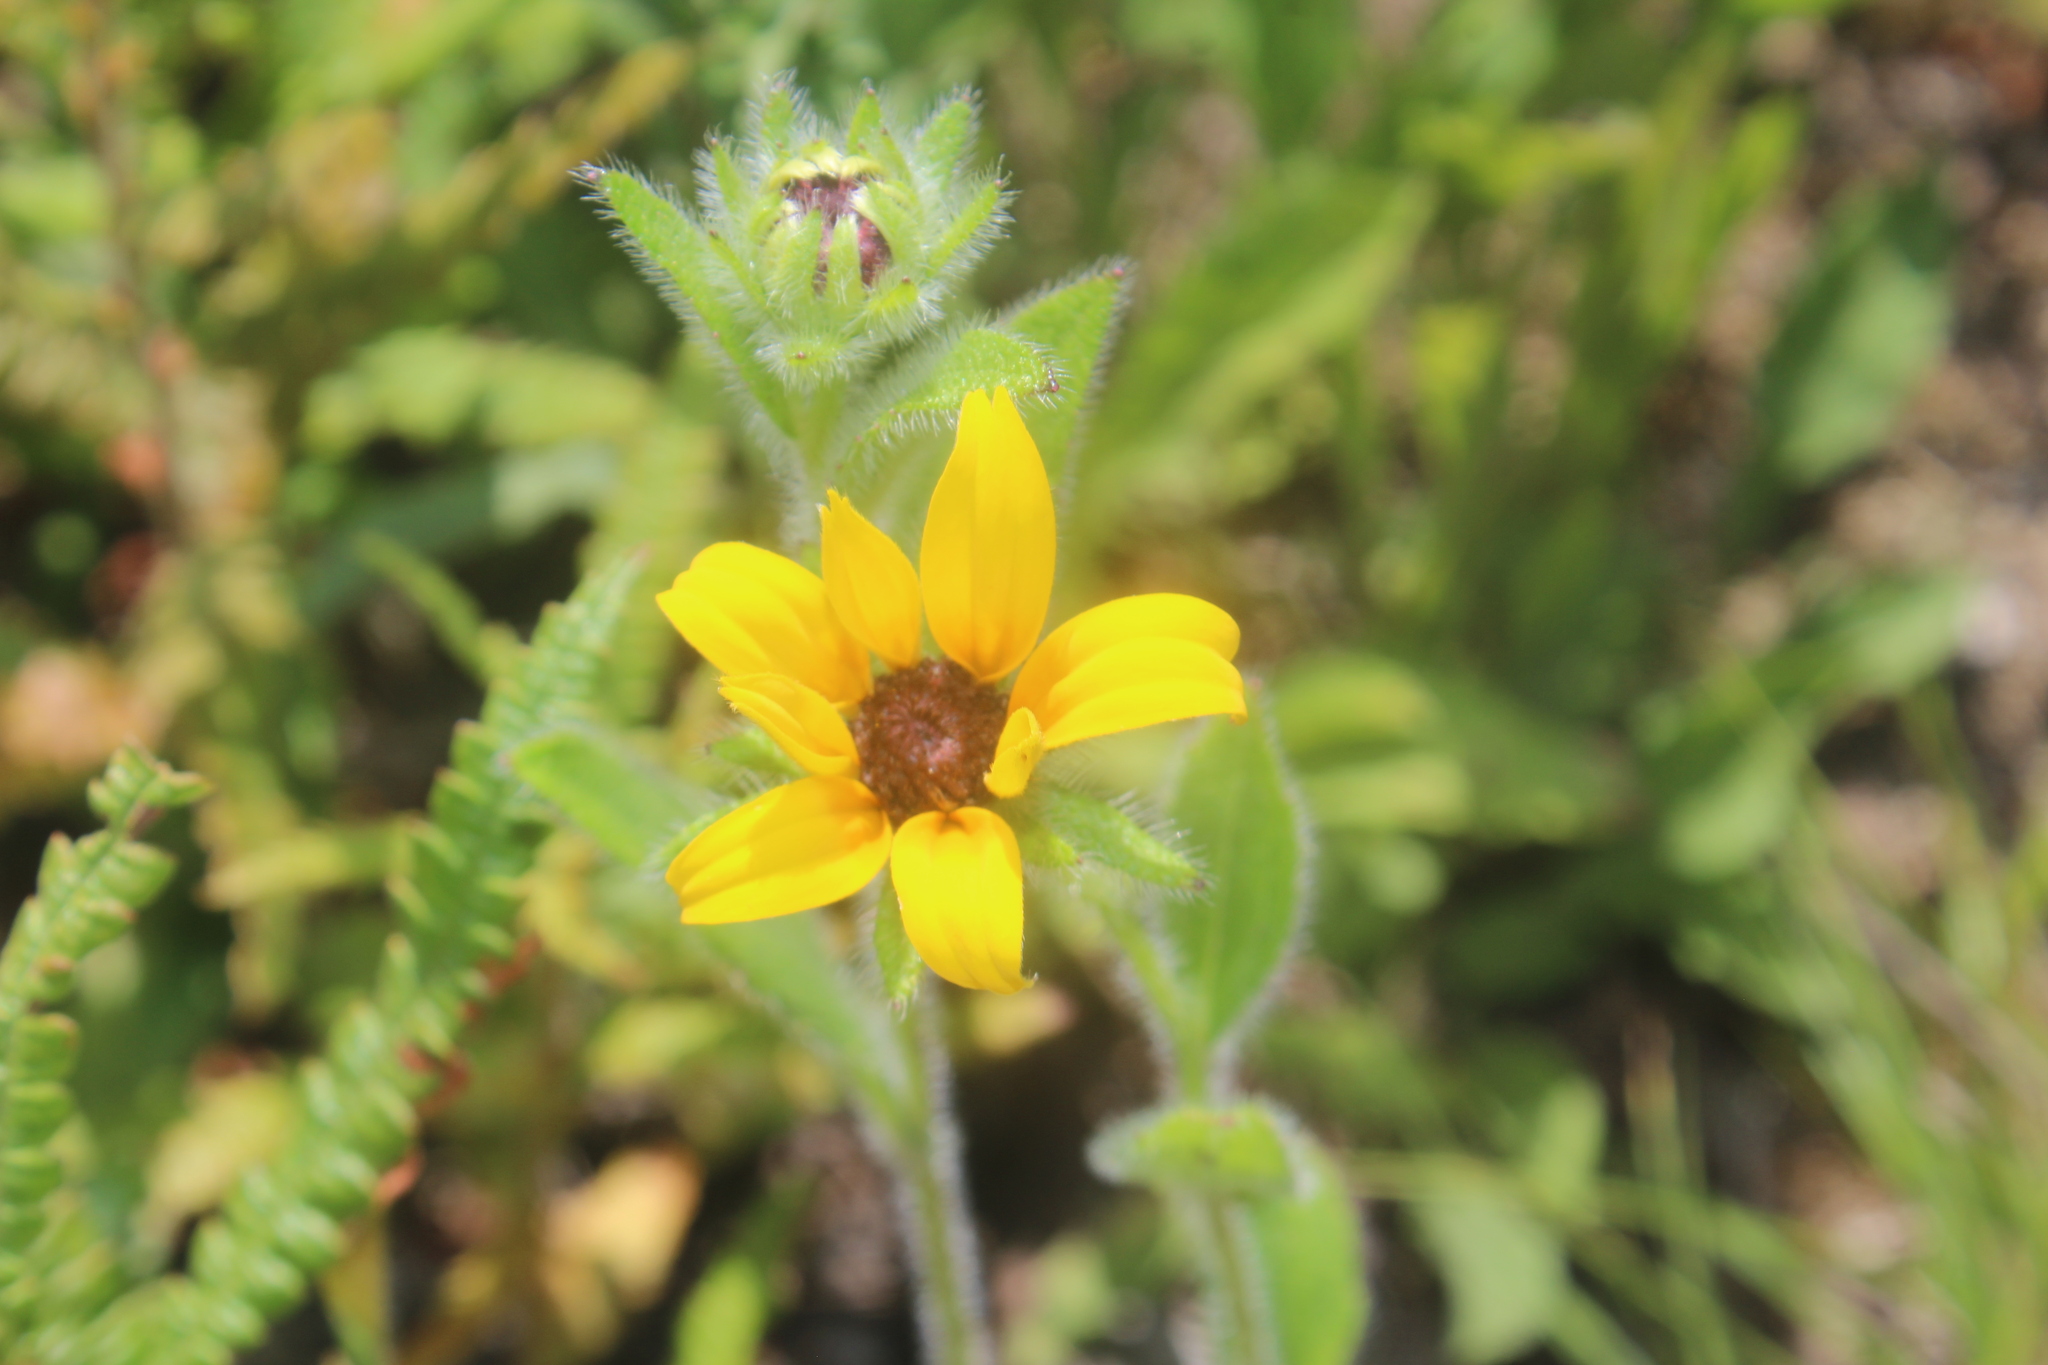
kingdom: Plantae
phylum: Tracheophyta
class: Magnoliopsida
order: Asterales
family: Asteraceae
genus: Rudbeckia
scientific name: Rudbeckia hirta
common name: Black-eyed-susan
